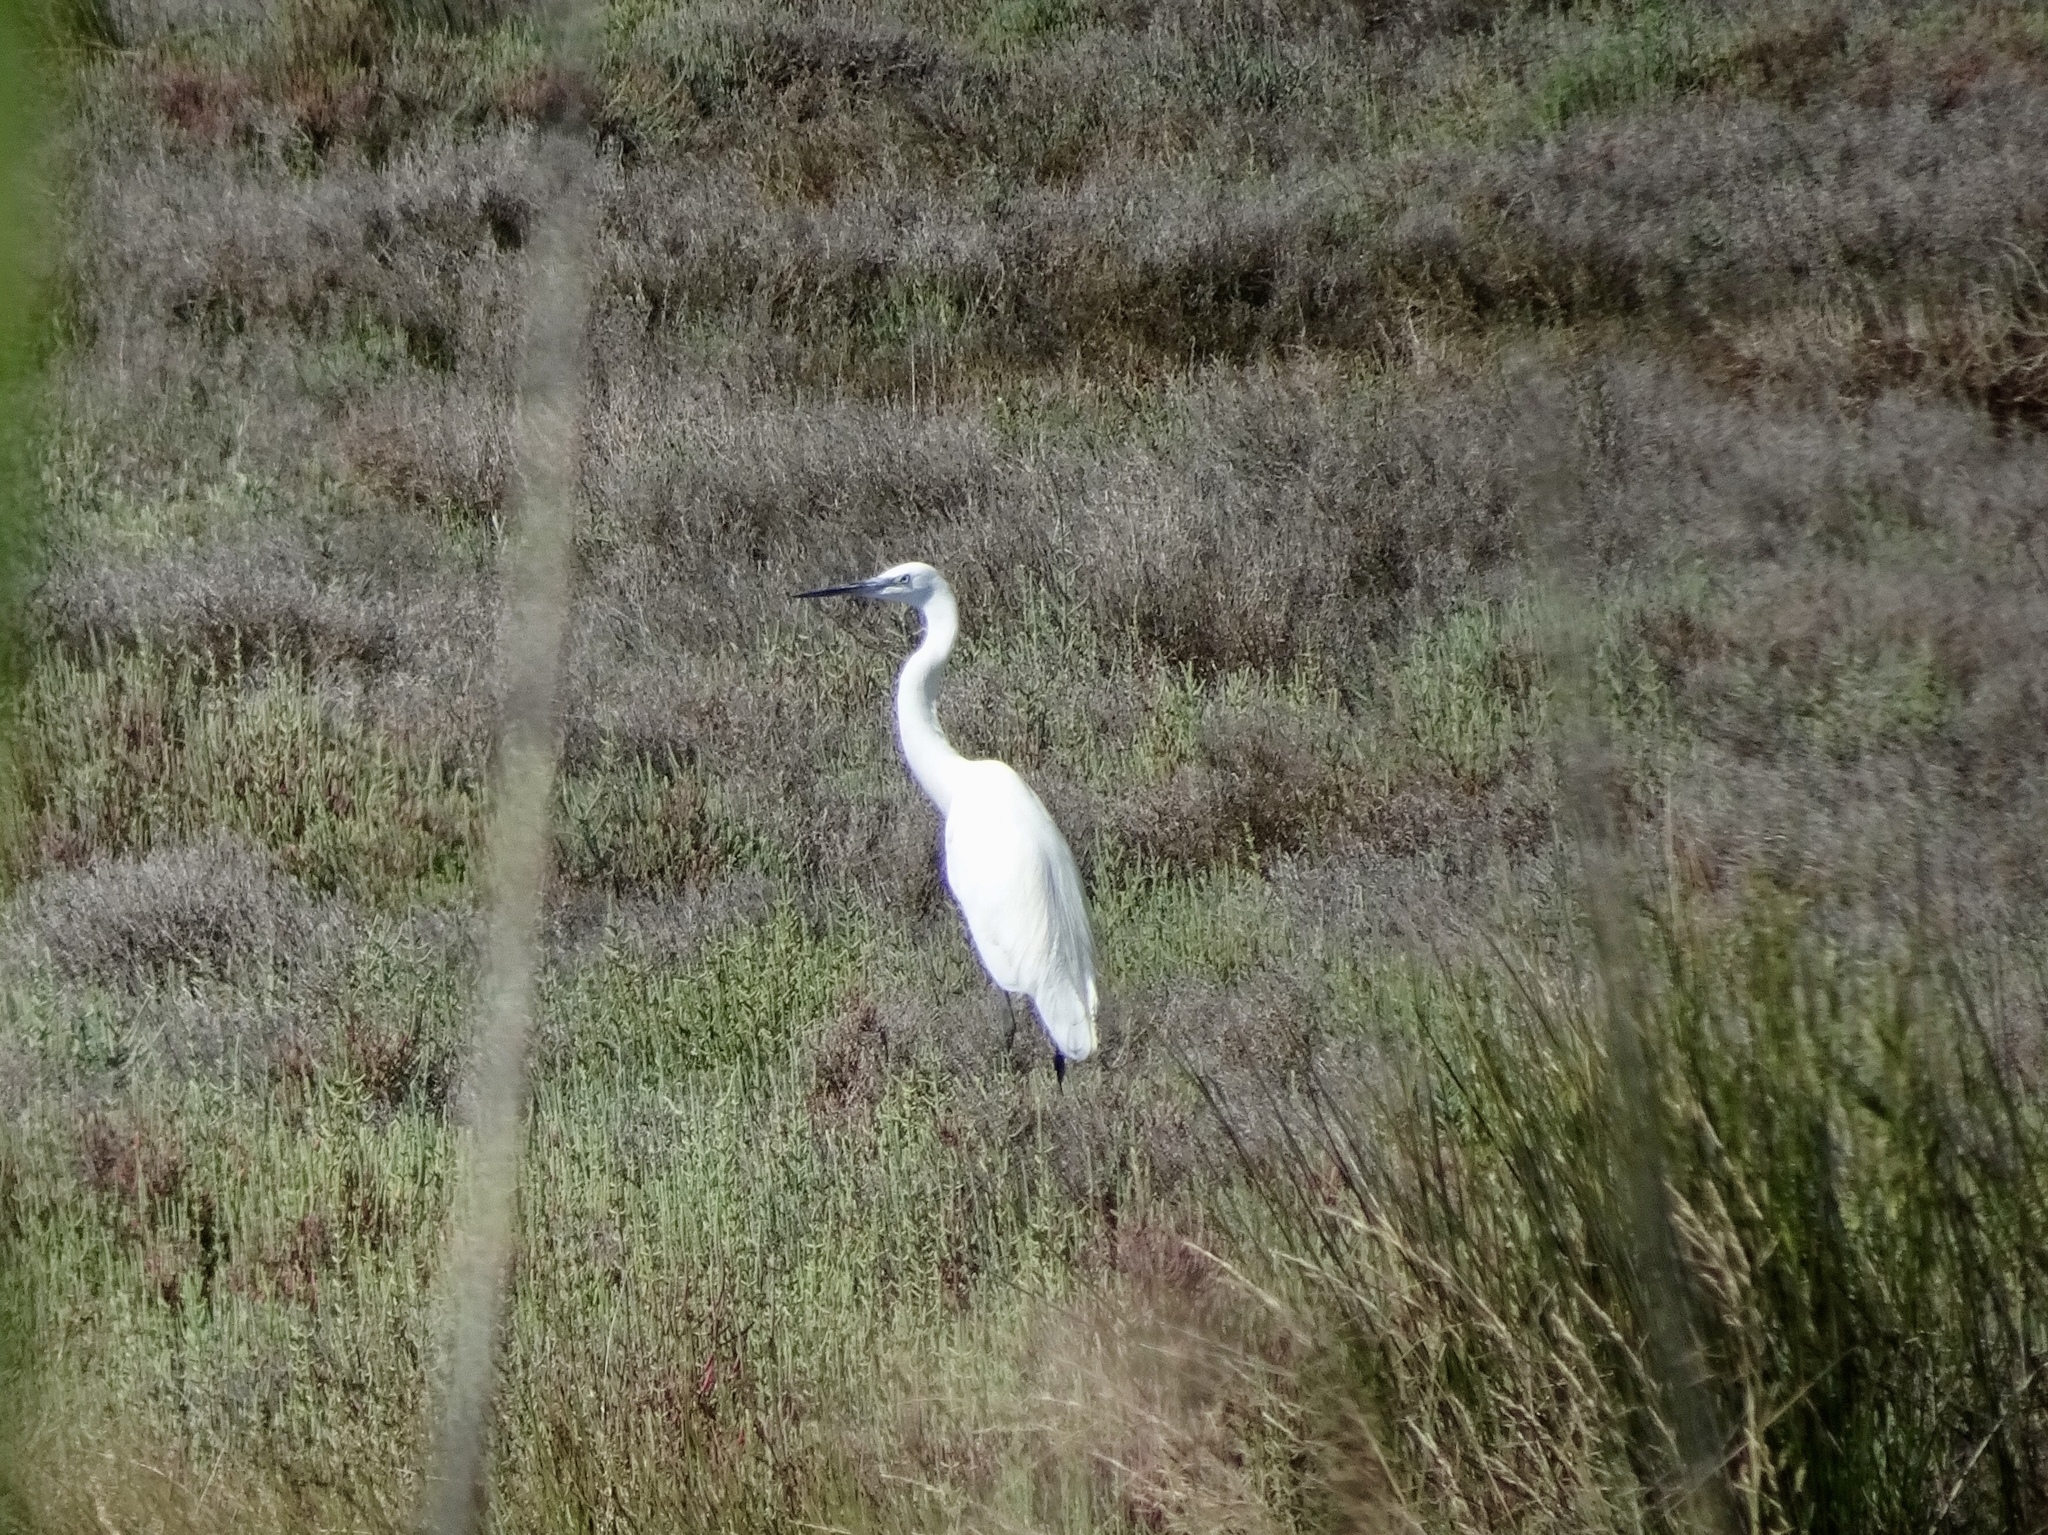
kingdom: Animalia
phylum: Chordata
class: Aves
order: Pelecaniformes
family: Ardeidae
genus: Egretta
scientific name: Egretta garzetta
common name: Little egret
